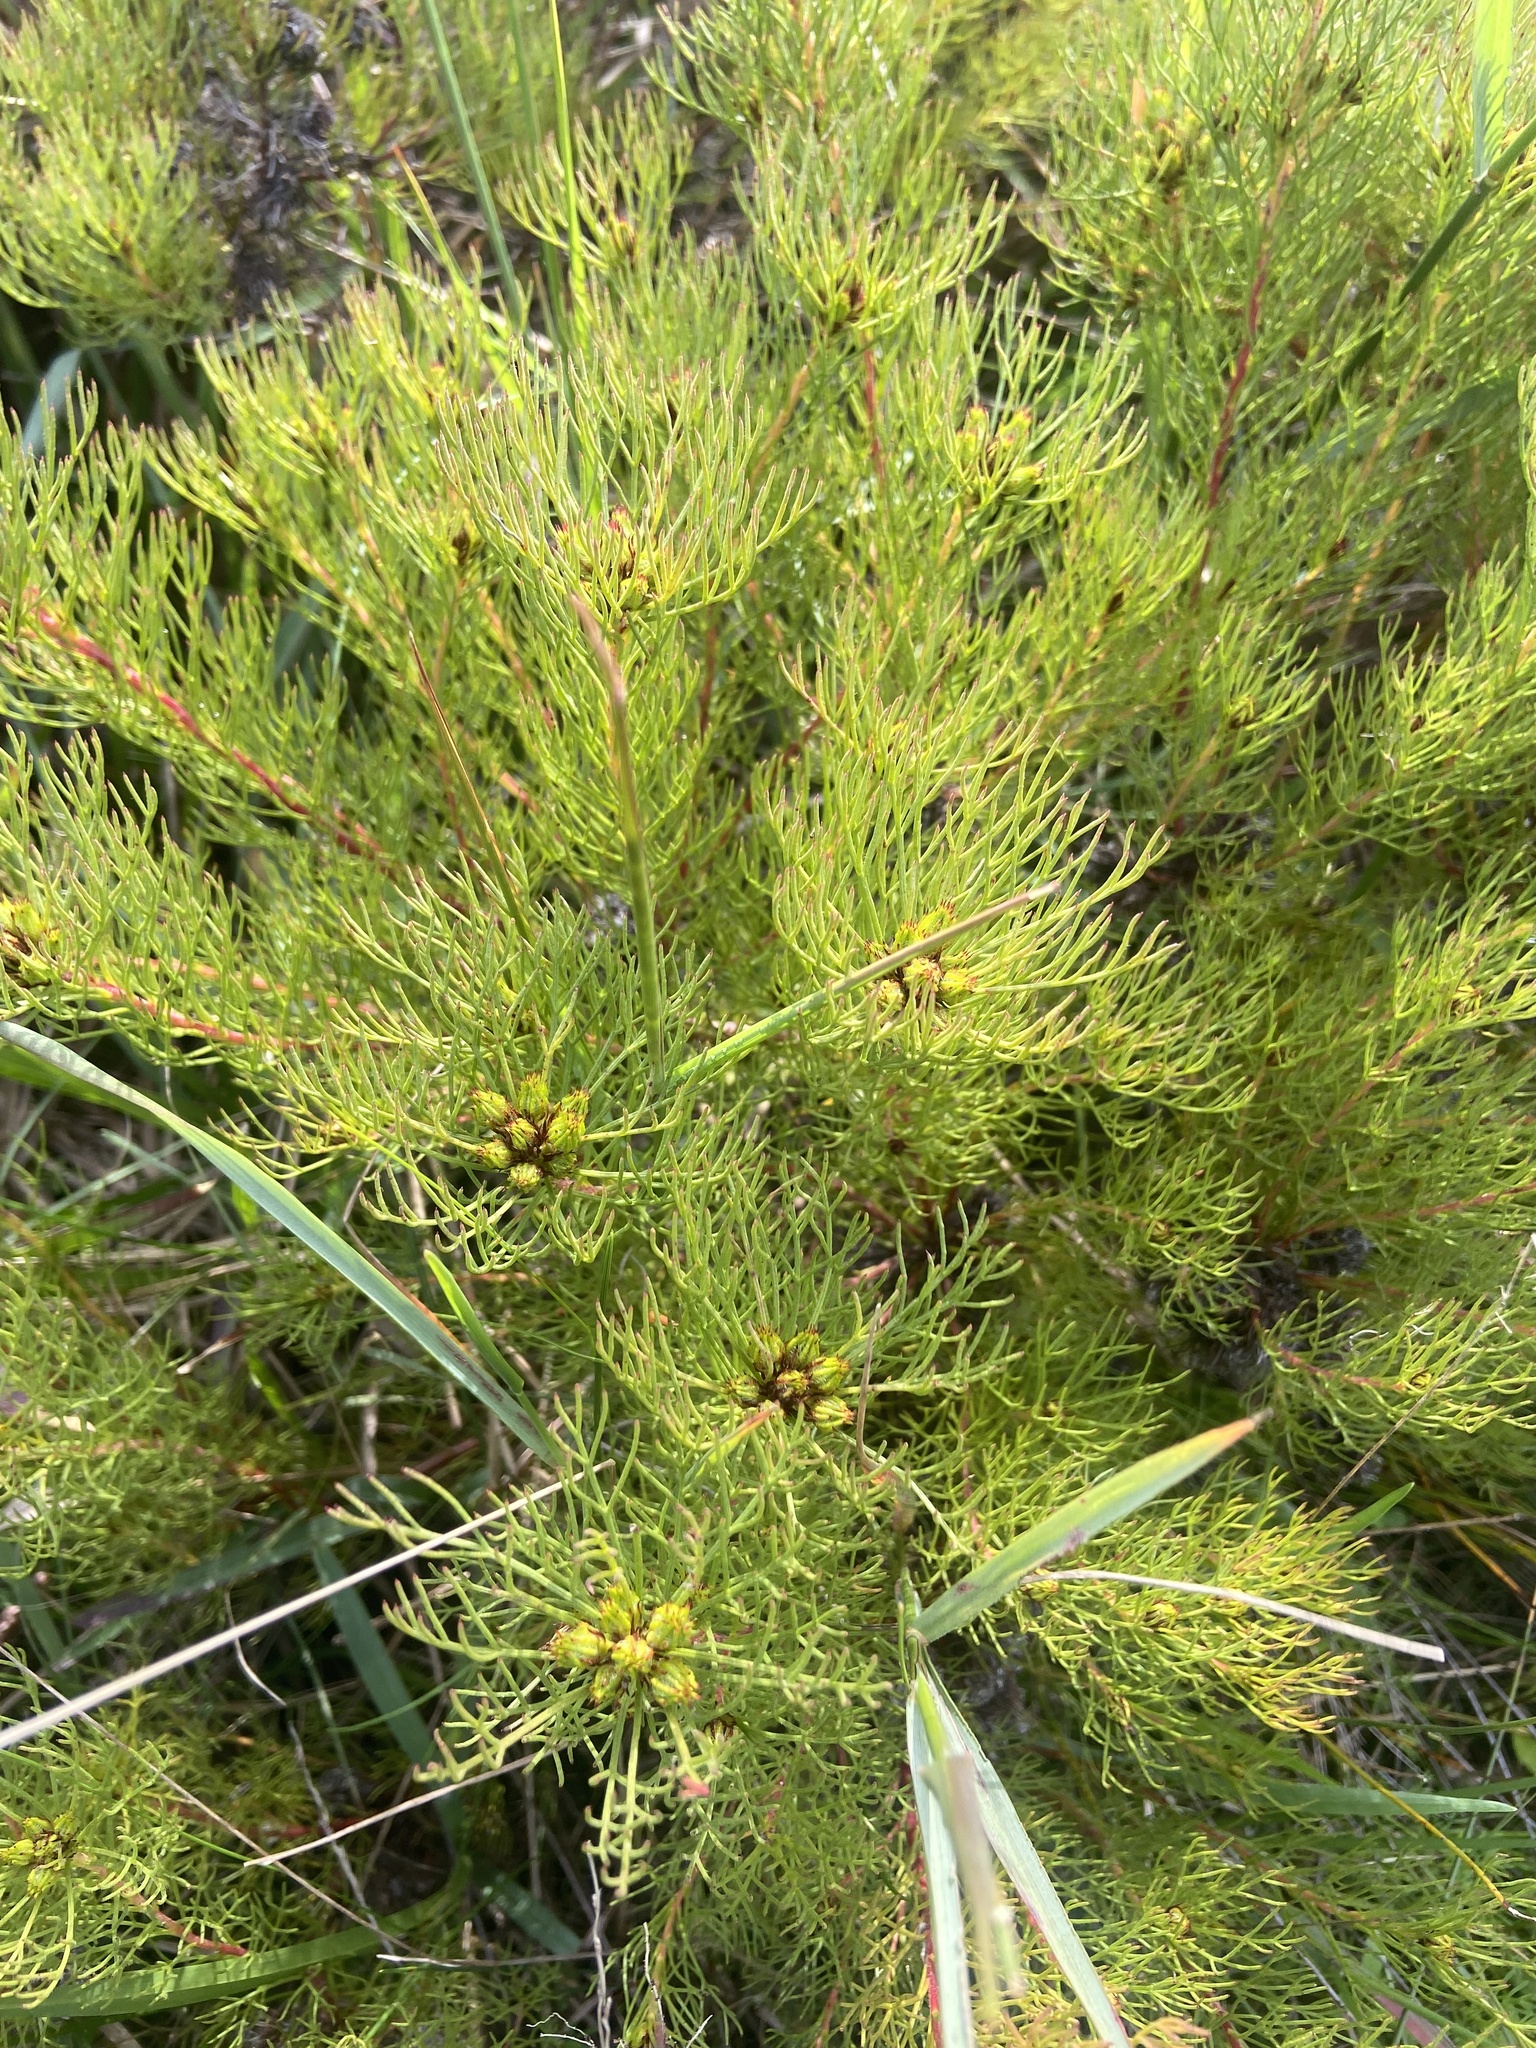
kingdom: Plantae
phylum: Tracheophyta
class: Magnoliopsida
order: Proteales
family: Proteaceae
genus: Serruria
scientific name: Serruria aemula
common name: Strawberry spiderhead
